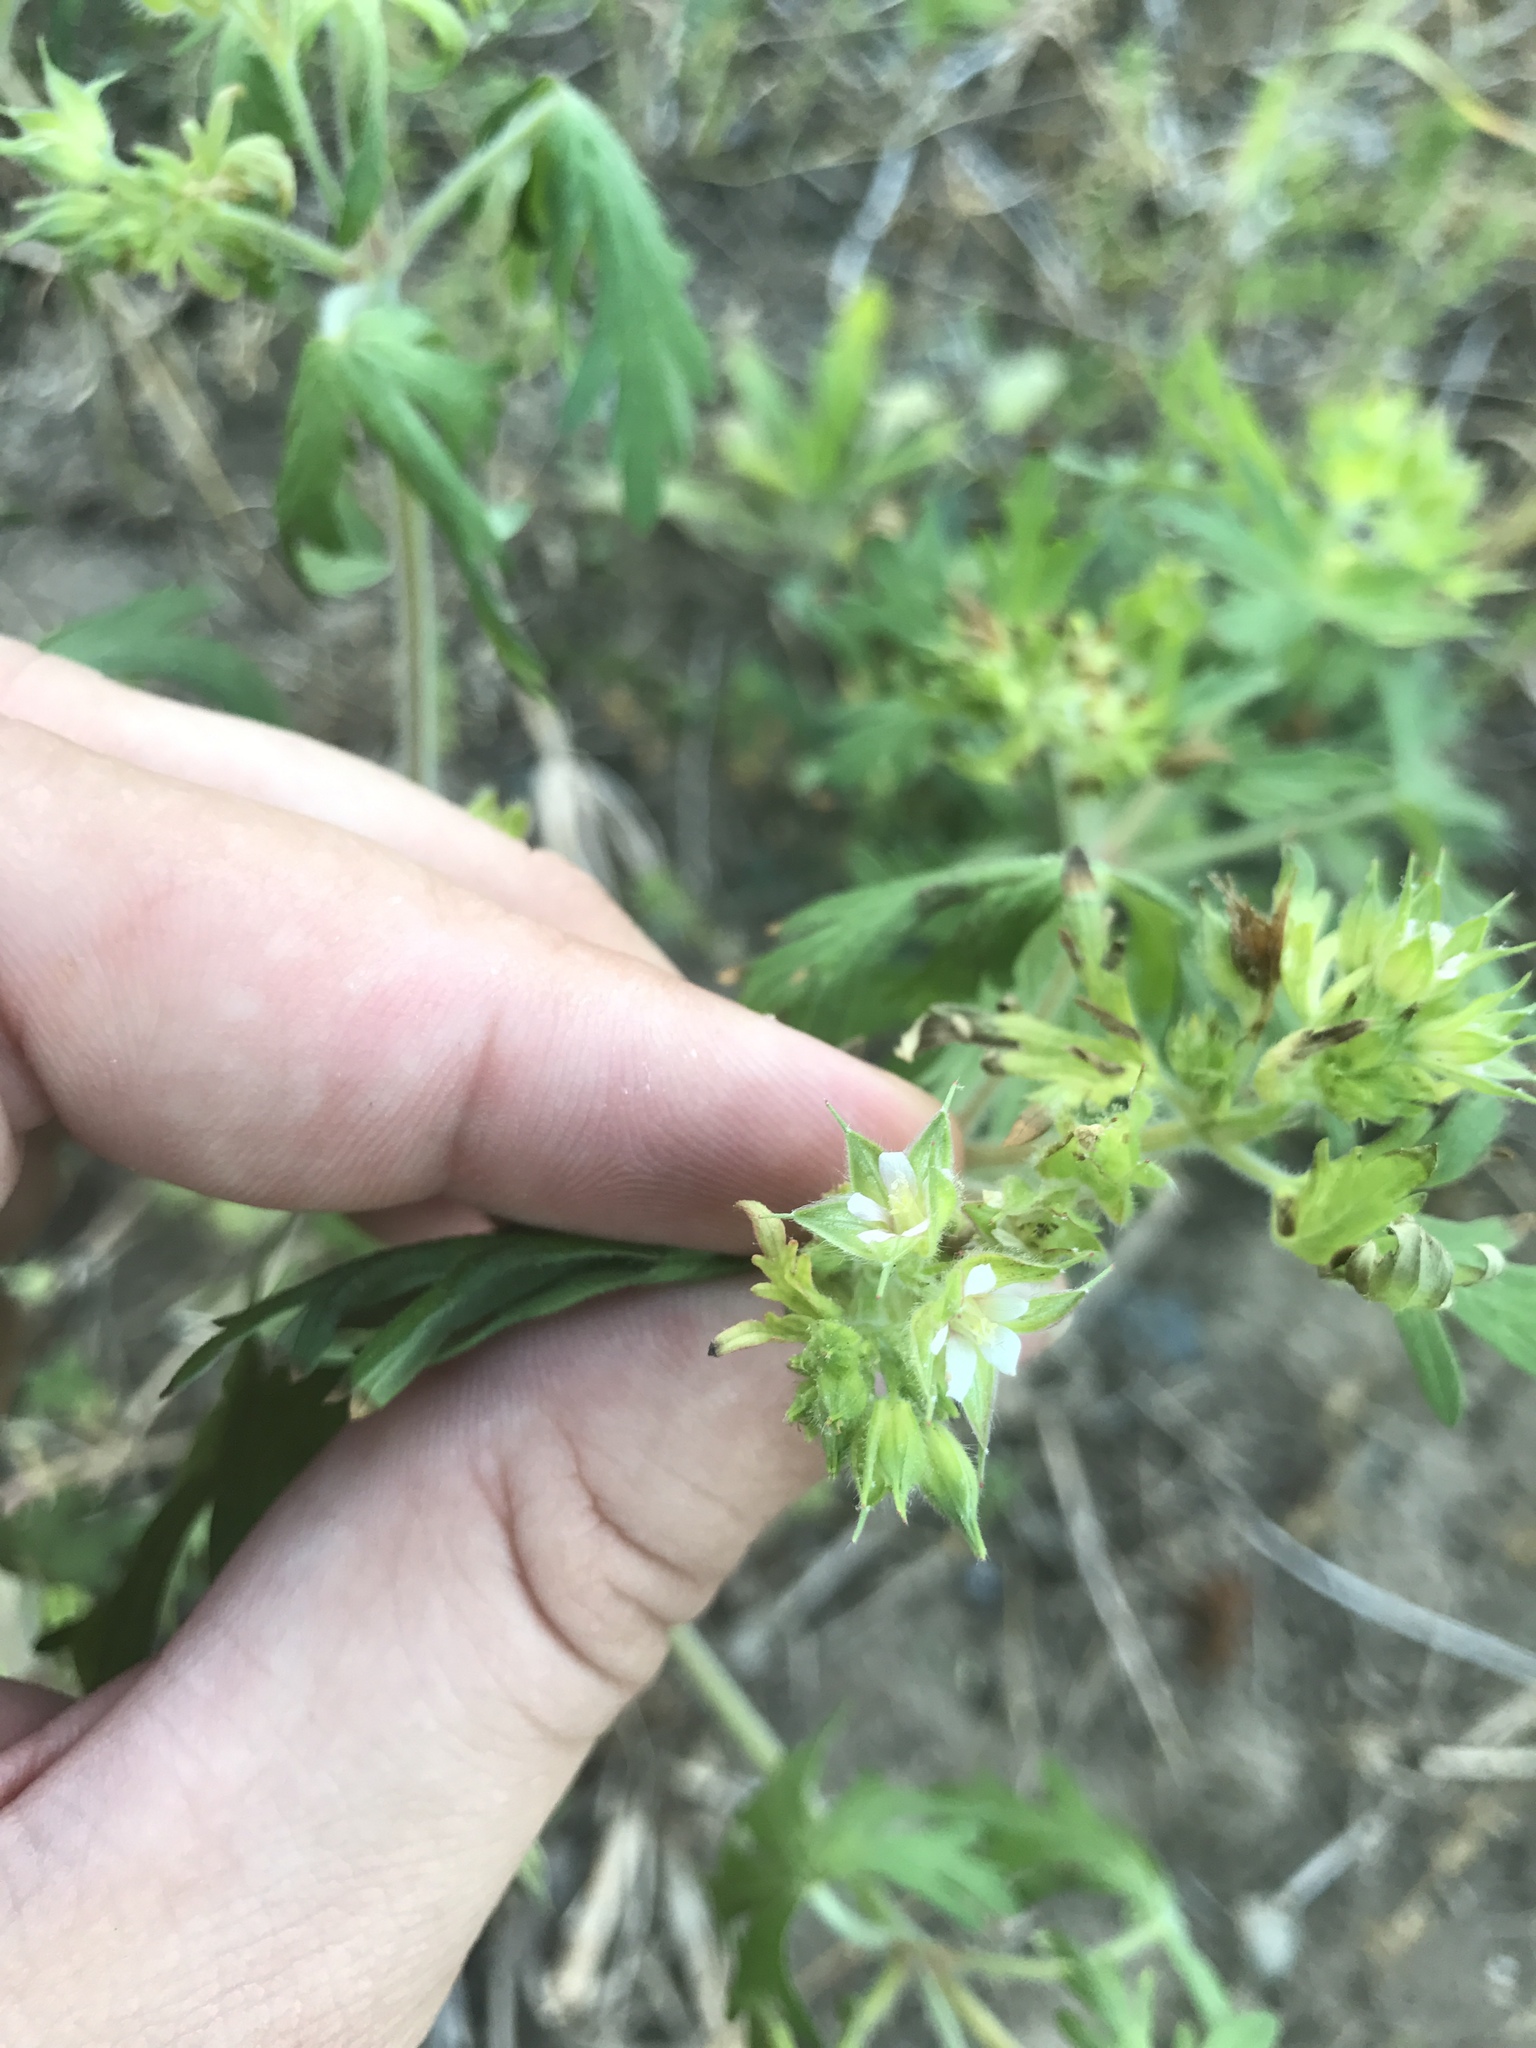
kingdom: Plantae
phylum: Tracheophyta
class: Magnoliopsida
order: Geraniales
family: Geraniaceae
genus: Geranium
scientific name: Geranium carolinianum
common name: Carolina crane's-bill
